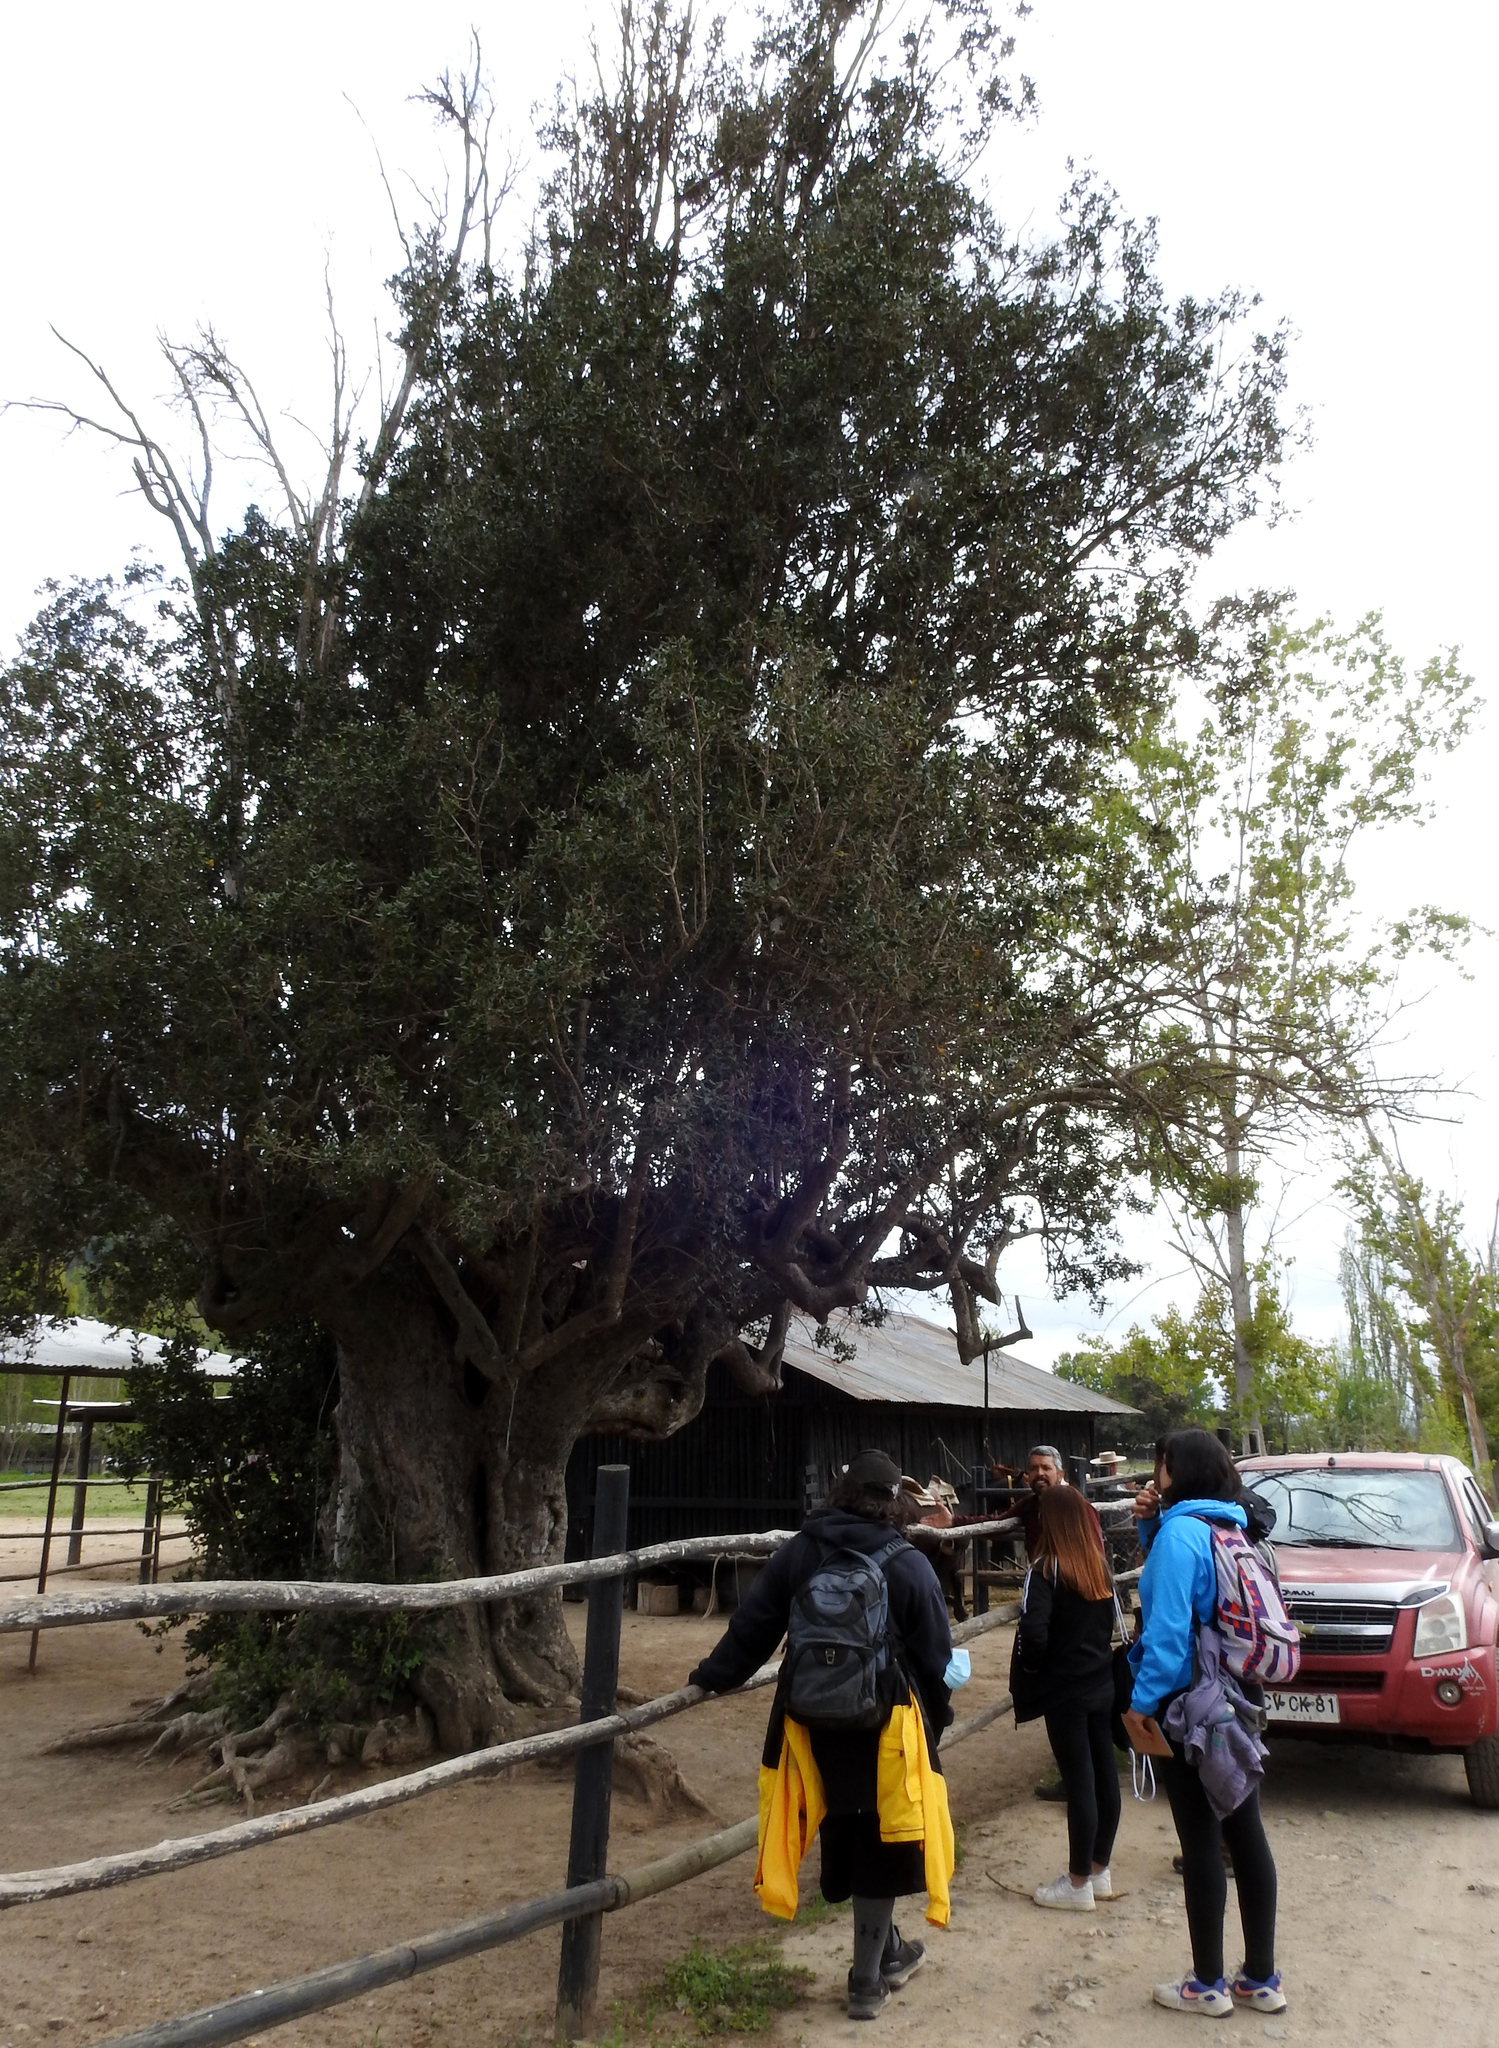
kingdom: Plantae
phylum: Tracheophyta
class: Magnoliopsida
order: Laurales
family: Monimiaceae
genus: Peumus
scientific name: Peumus boldus
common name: Boldo
